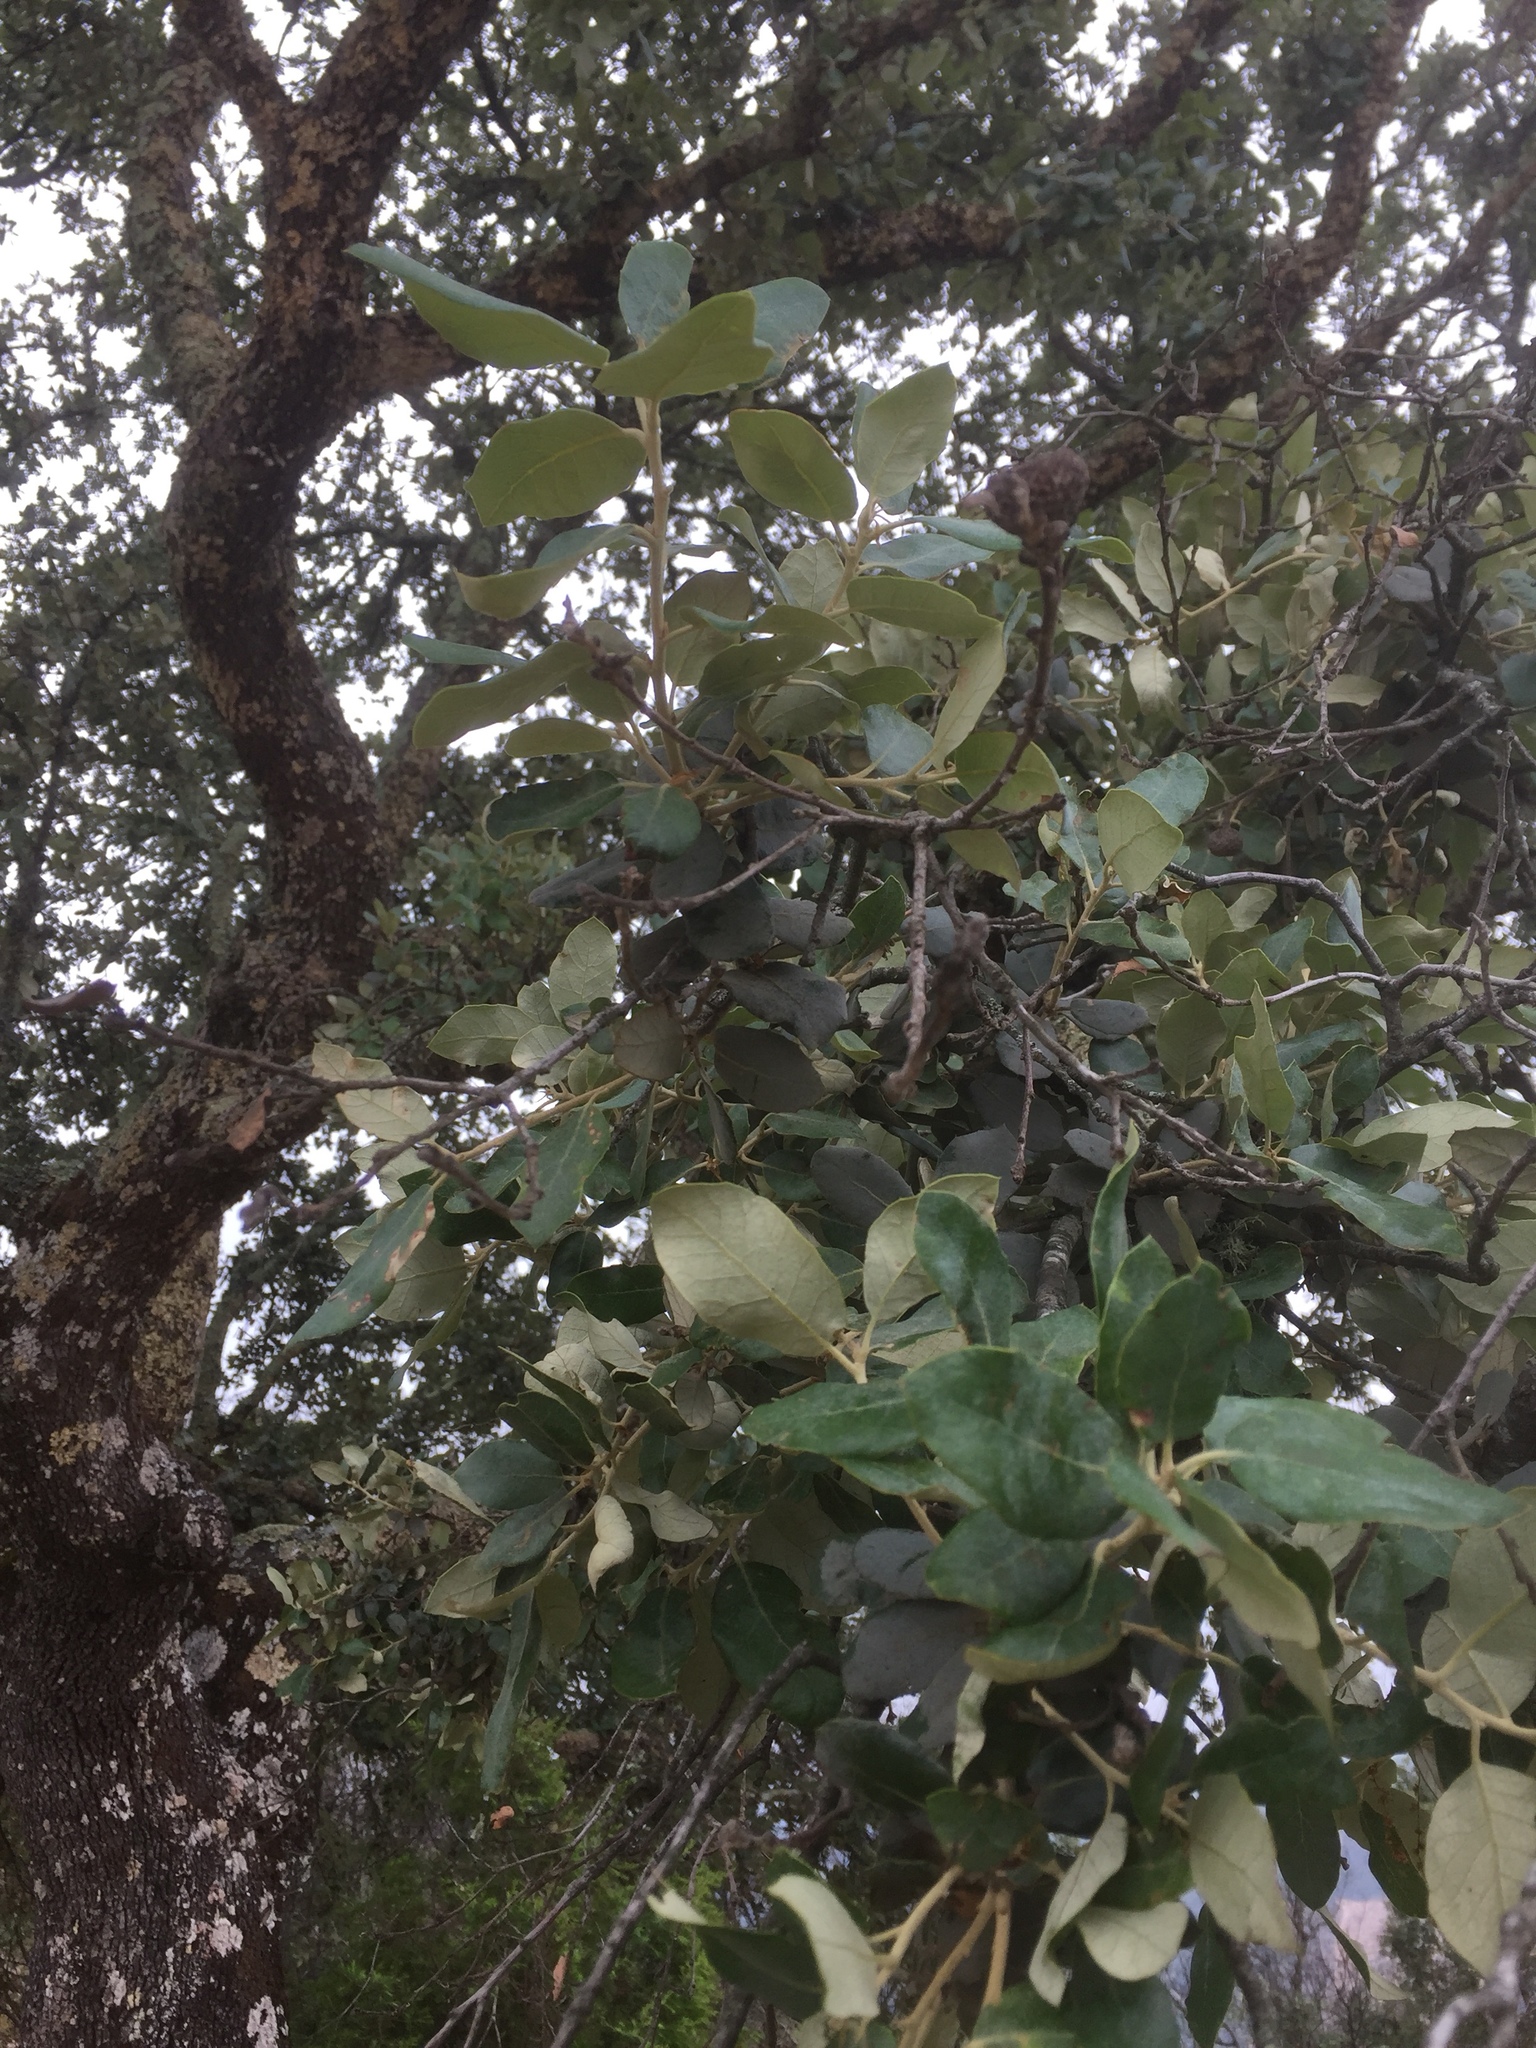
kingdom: Plantae
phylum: Tracheophyta
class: Magnoliopsida
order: Fagales
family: Fagaceae
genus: Quercus
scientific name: Quercus rotundifolia
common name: Holm oak
